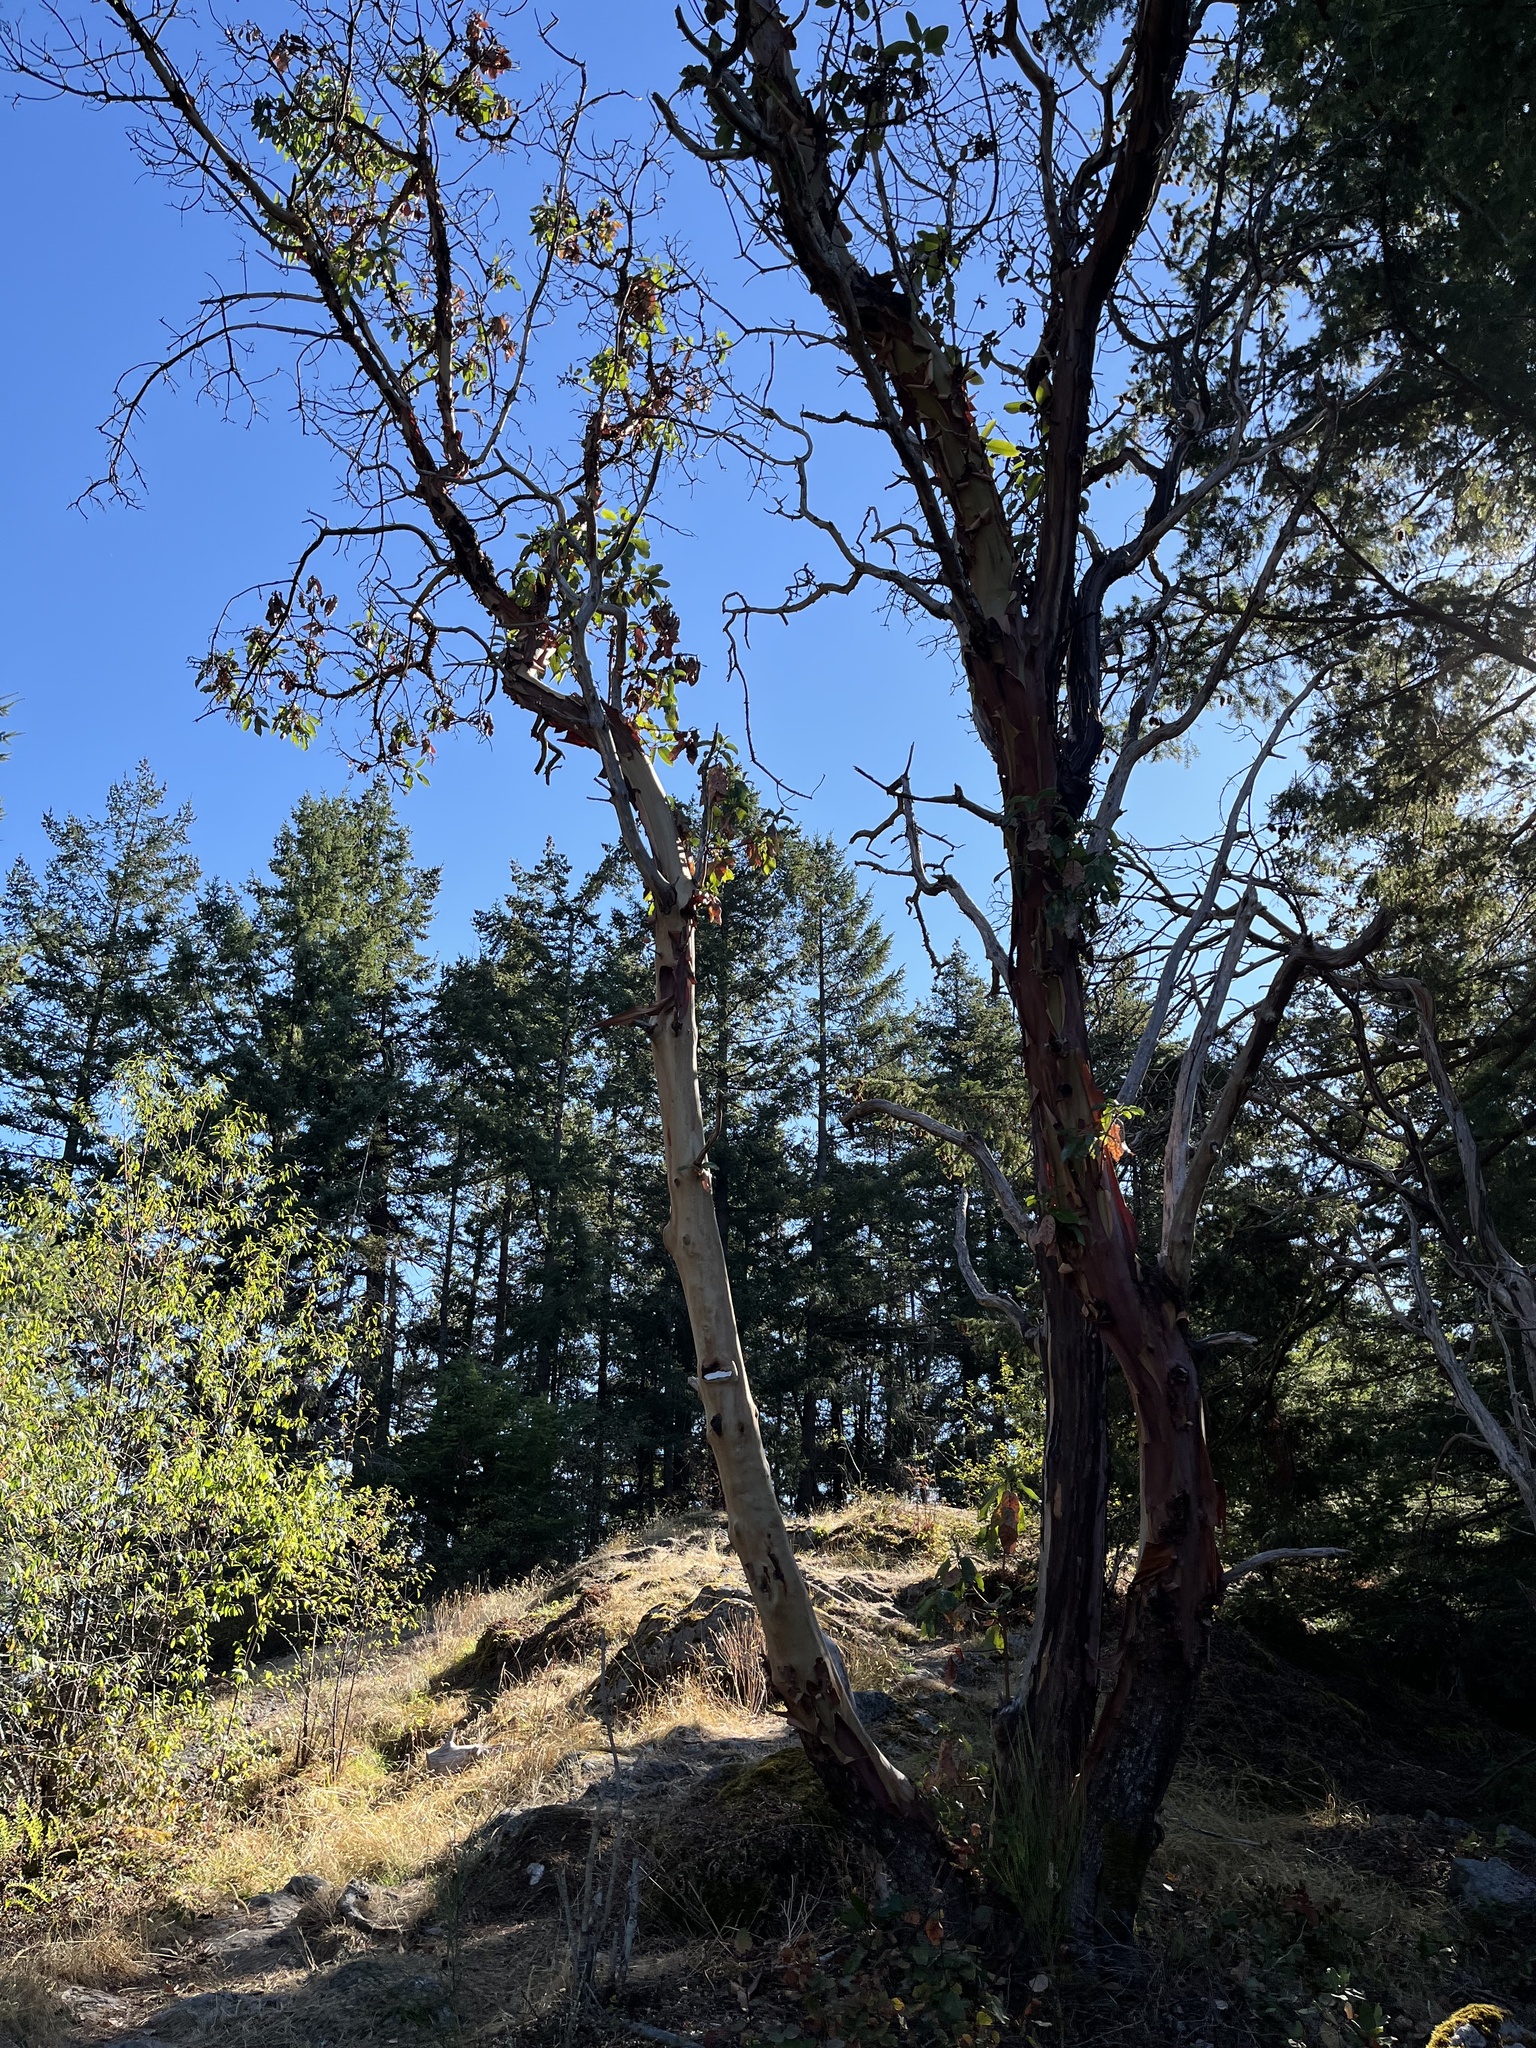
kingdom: Plantae
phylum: Tracheophyta
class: Magnoliopsida
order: Ericales
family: Ericaceae
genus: Arbutus
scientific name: Arbutus menziesii
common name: Pacific madrone
